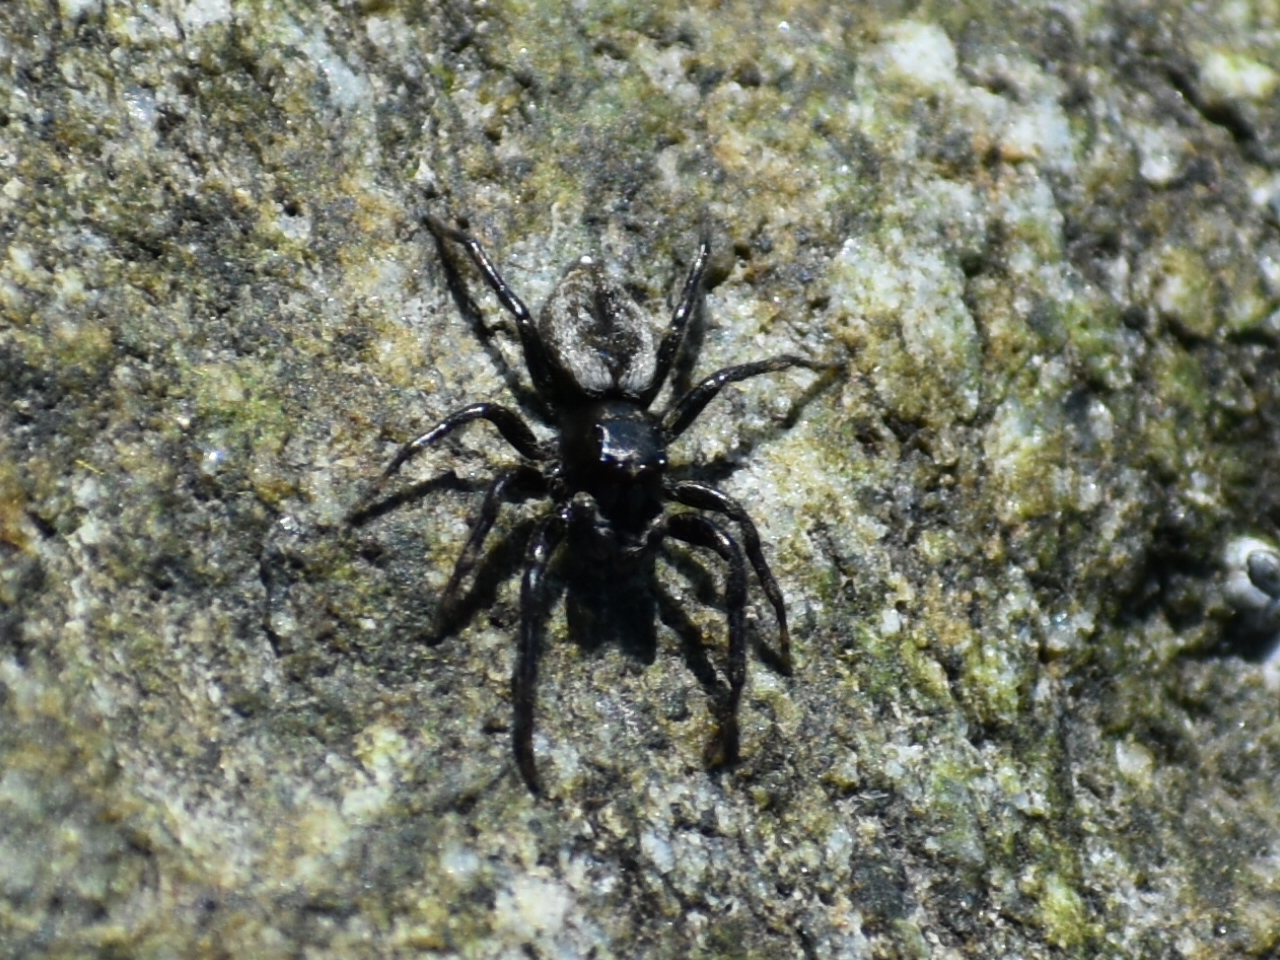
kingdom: Animalia
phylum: Arthropoda
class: Arachnida
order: Araneae
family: Salticidae
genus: Hakka
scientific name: Hakka himeshimensis
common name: Jumping spider
